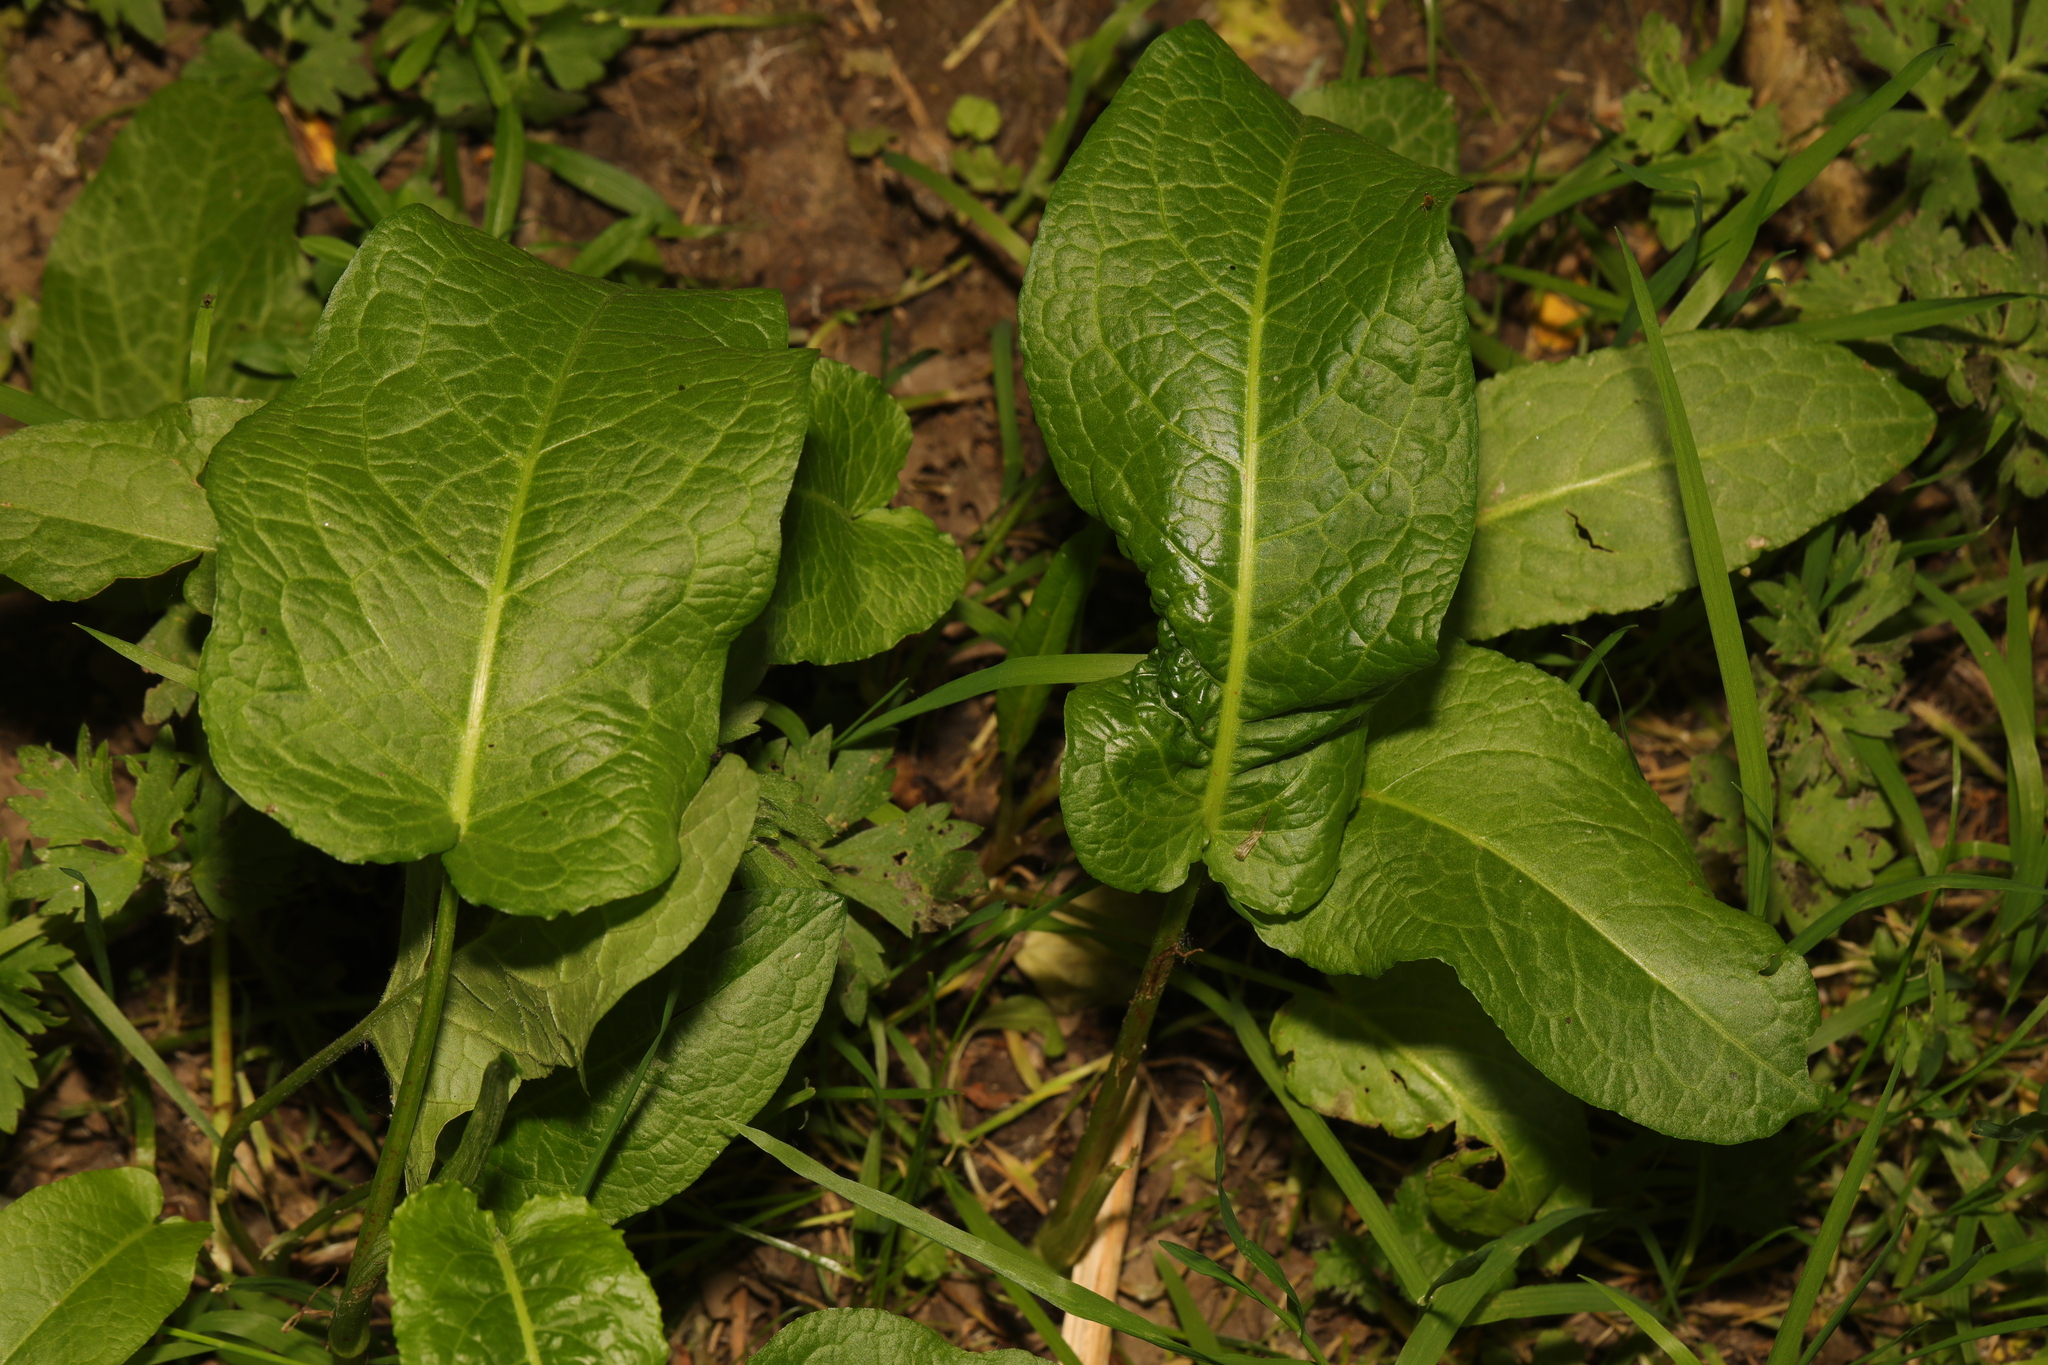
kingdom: Plantae
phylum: Tracheophyta
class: Magnoliopsida
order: Caryophyllales
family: Polygonaceae
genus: Rumex
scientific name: Rumex obtusifolius
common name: Bitter dock
